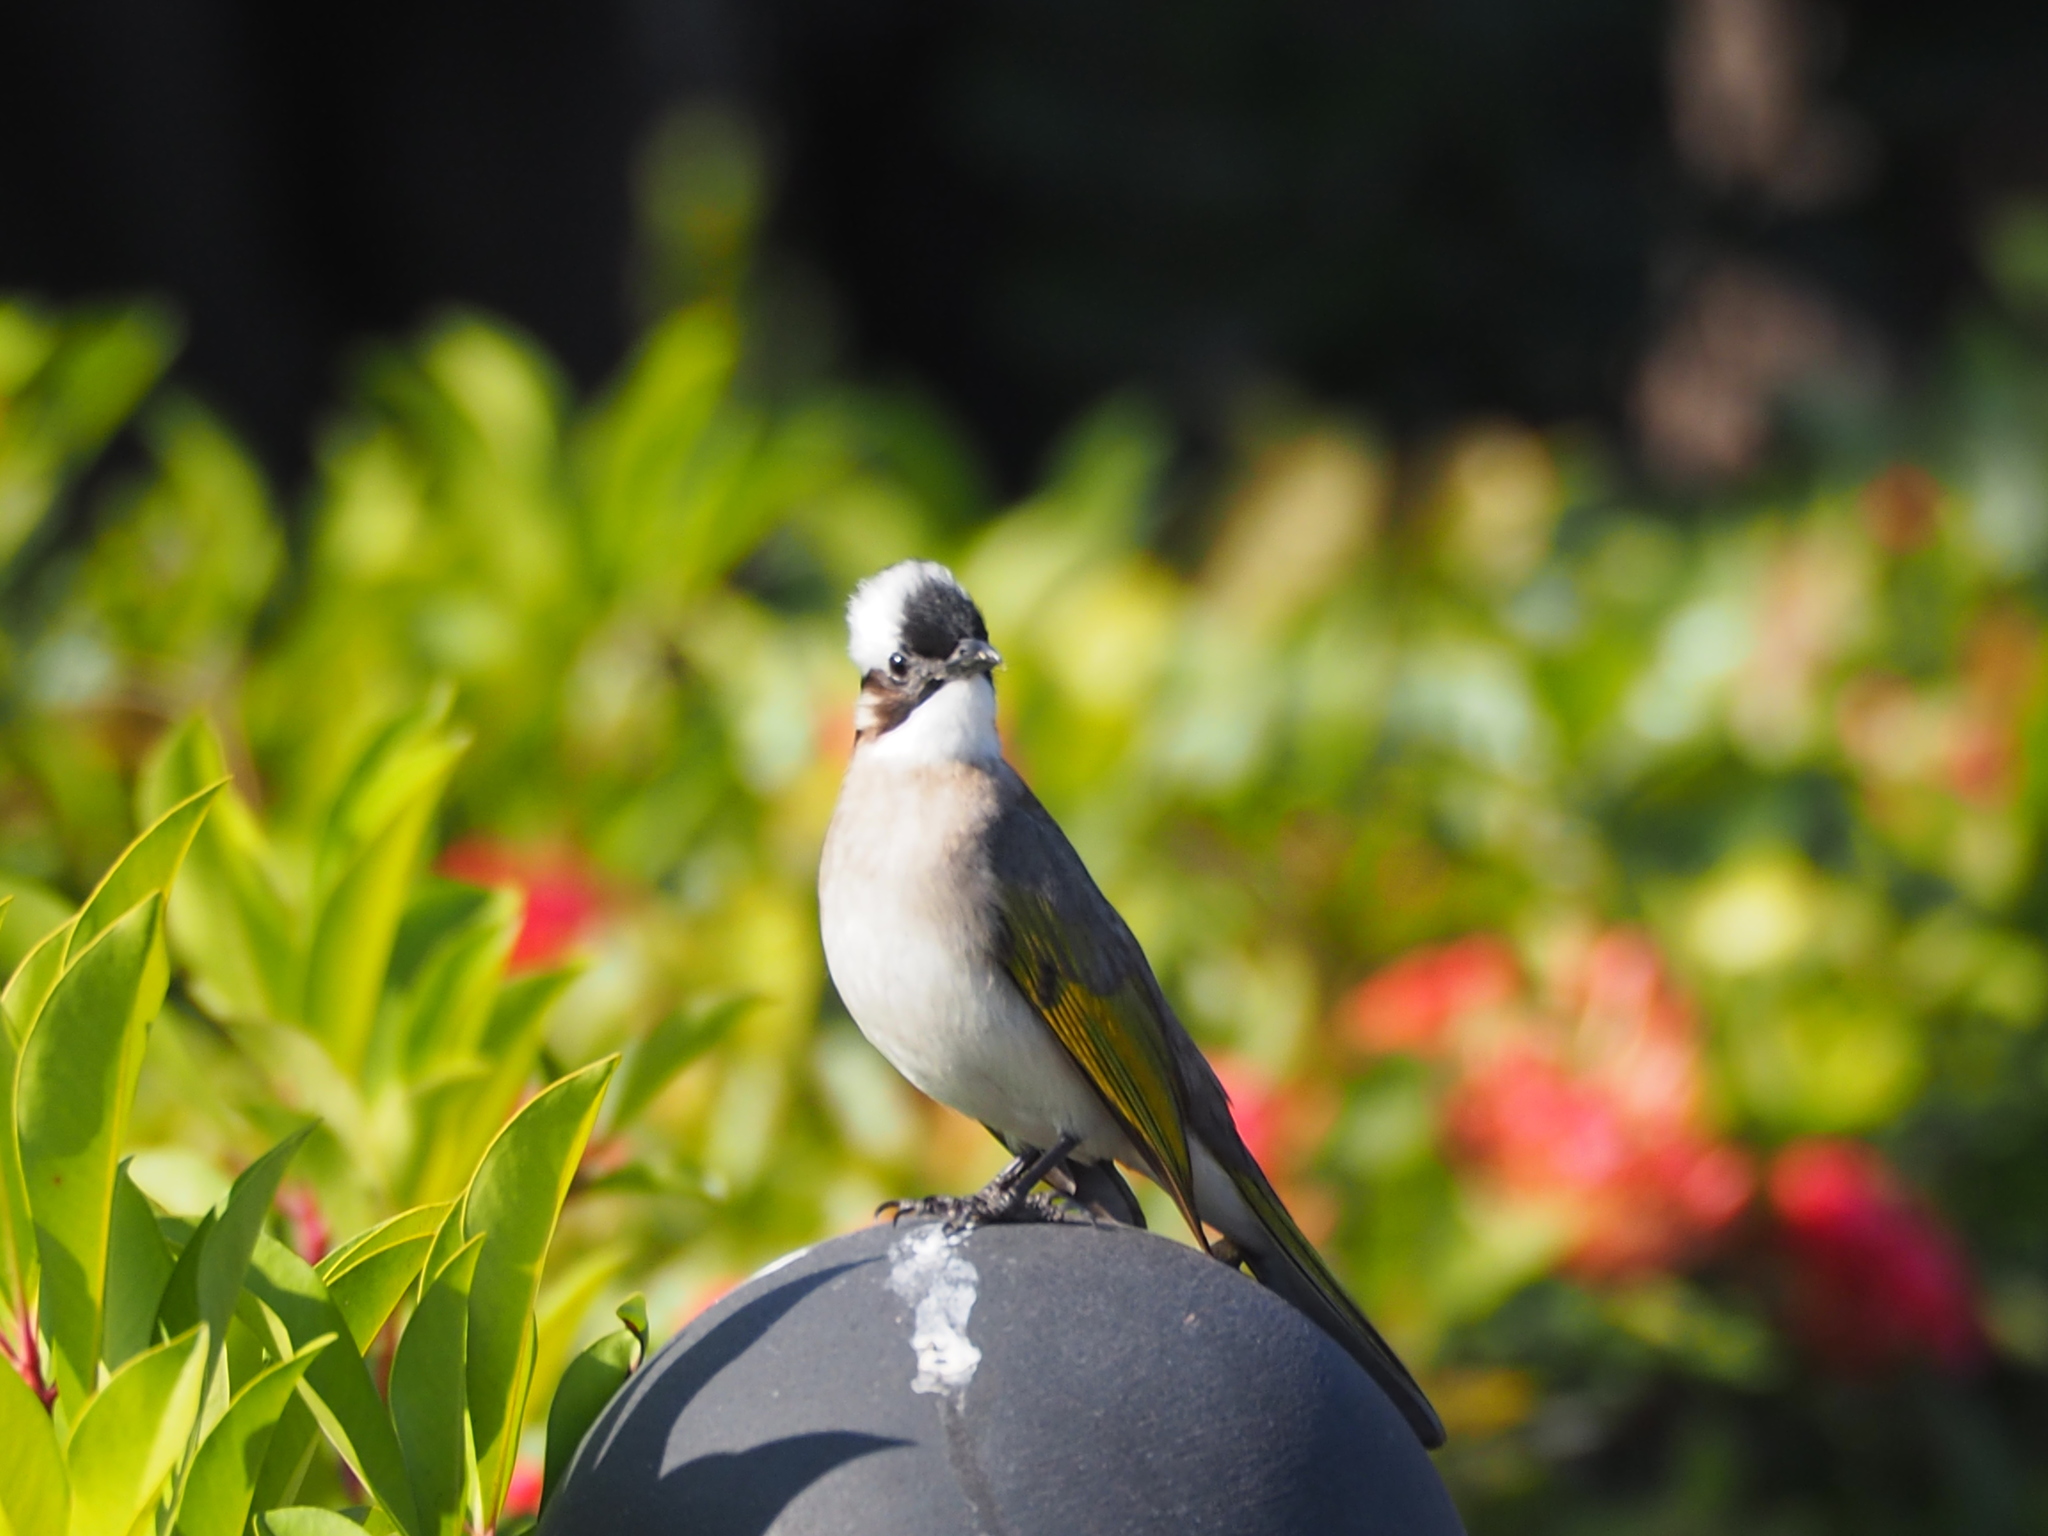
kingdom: Animalia
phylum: Chordata
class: Aves
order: Passeriformes
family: Pycnonotidae
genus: Pycnonotus
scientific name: Pycnonotus sinensis
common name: Light-vented bulbul
